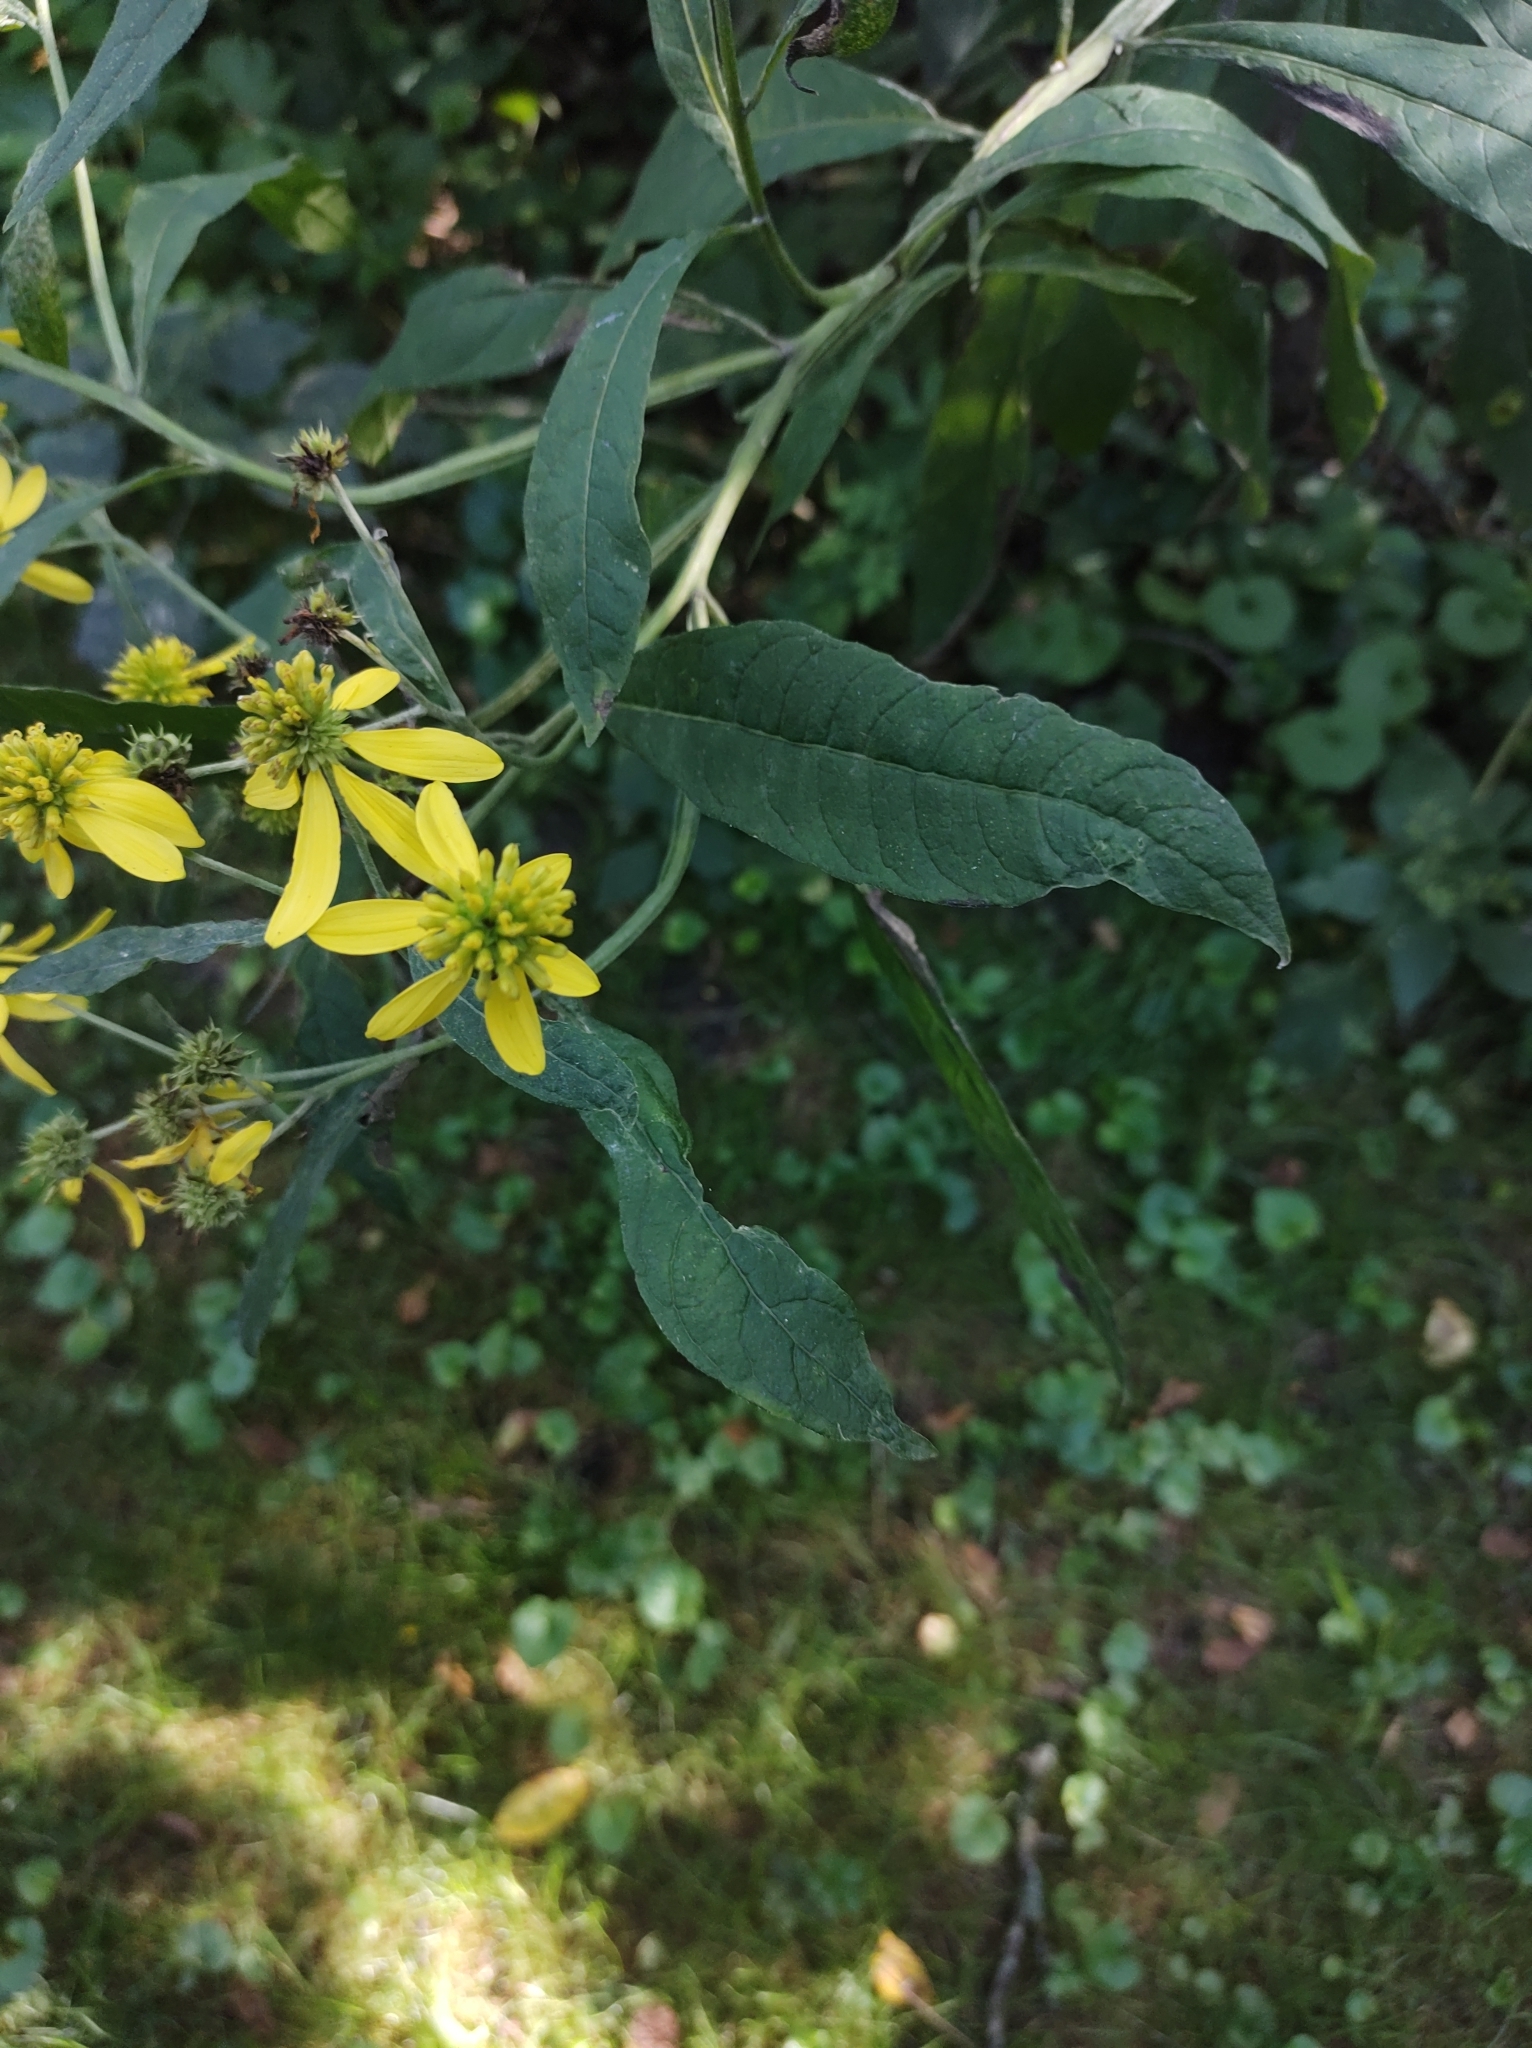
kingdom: Plantae
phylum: Tracheophyta
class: Magnoliopsida
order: Asterales
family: Asteraceae
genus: Verbesina
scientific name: Verbesina alternifolia
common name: Wingstem
